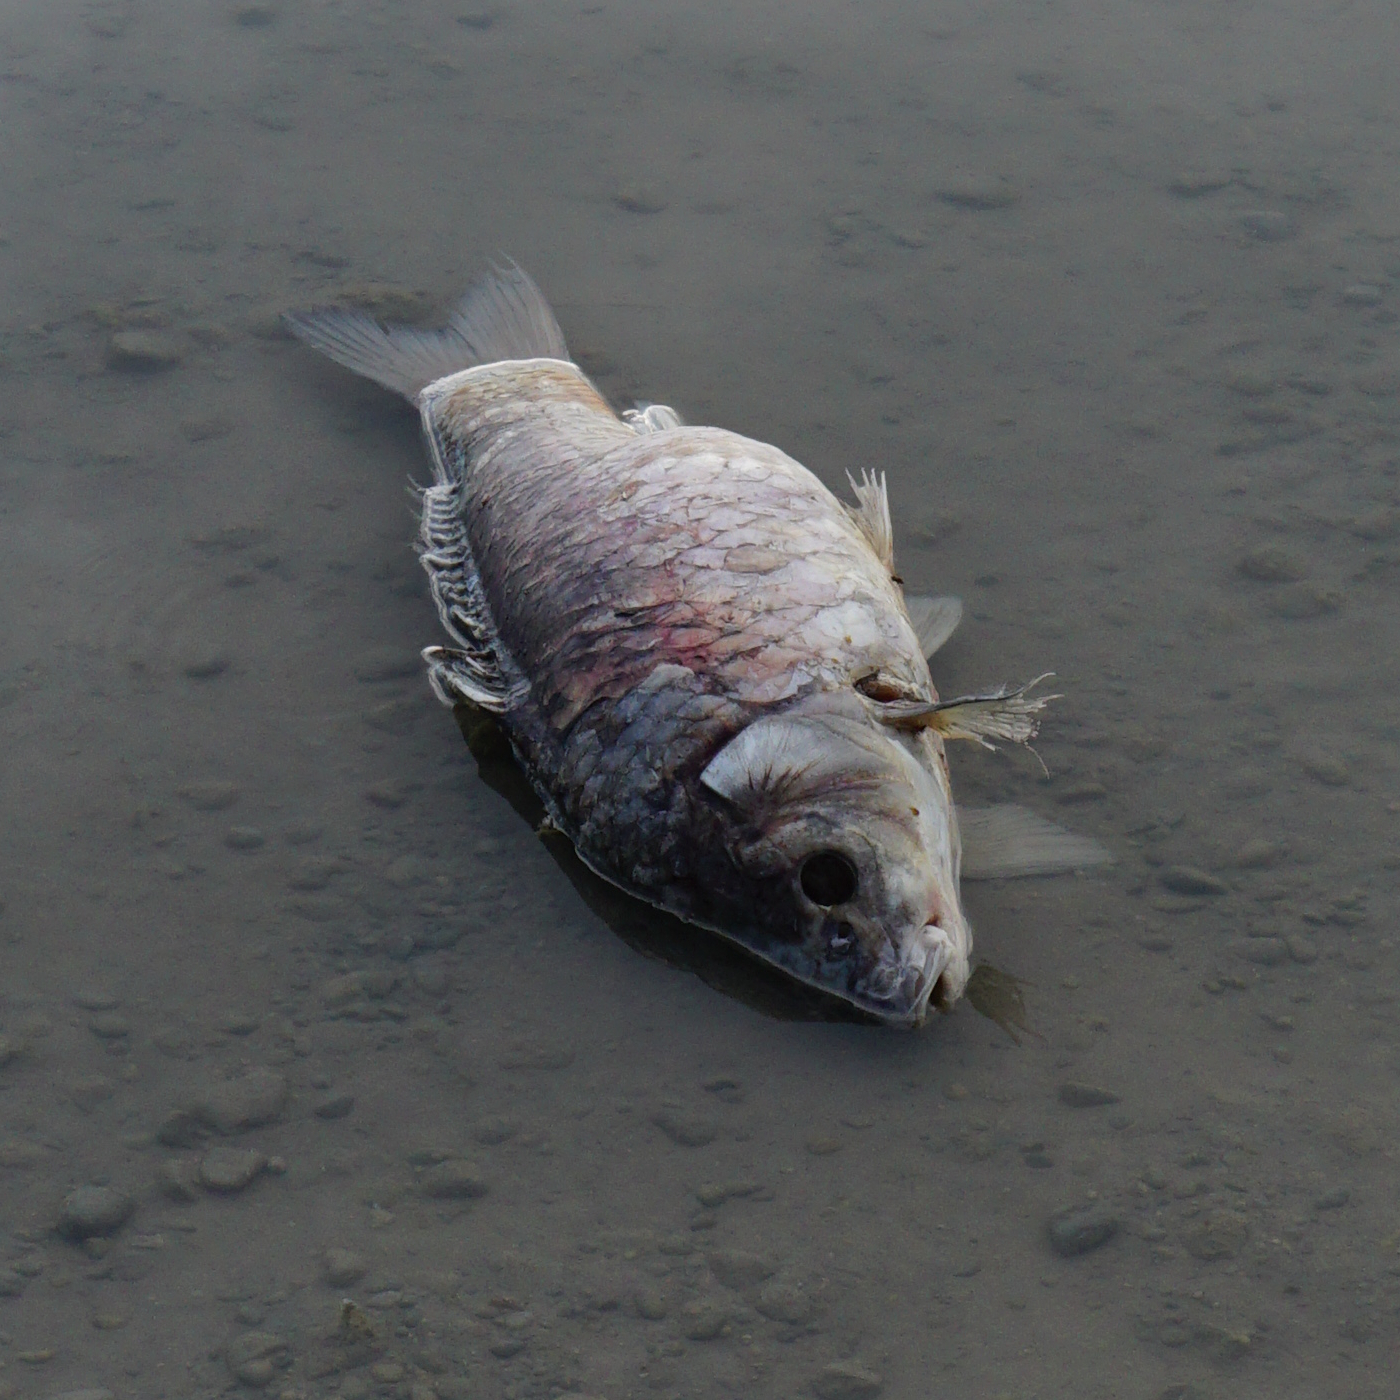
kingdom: Animalia
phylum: Chordata
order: Cypriniformes
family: Cyprinidae
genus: Cyprinus
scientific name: Cyprinus carpio
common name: Common carp
